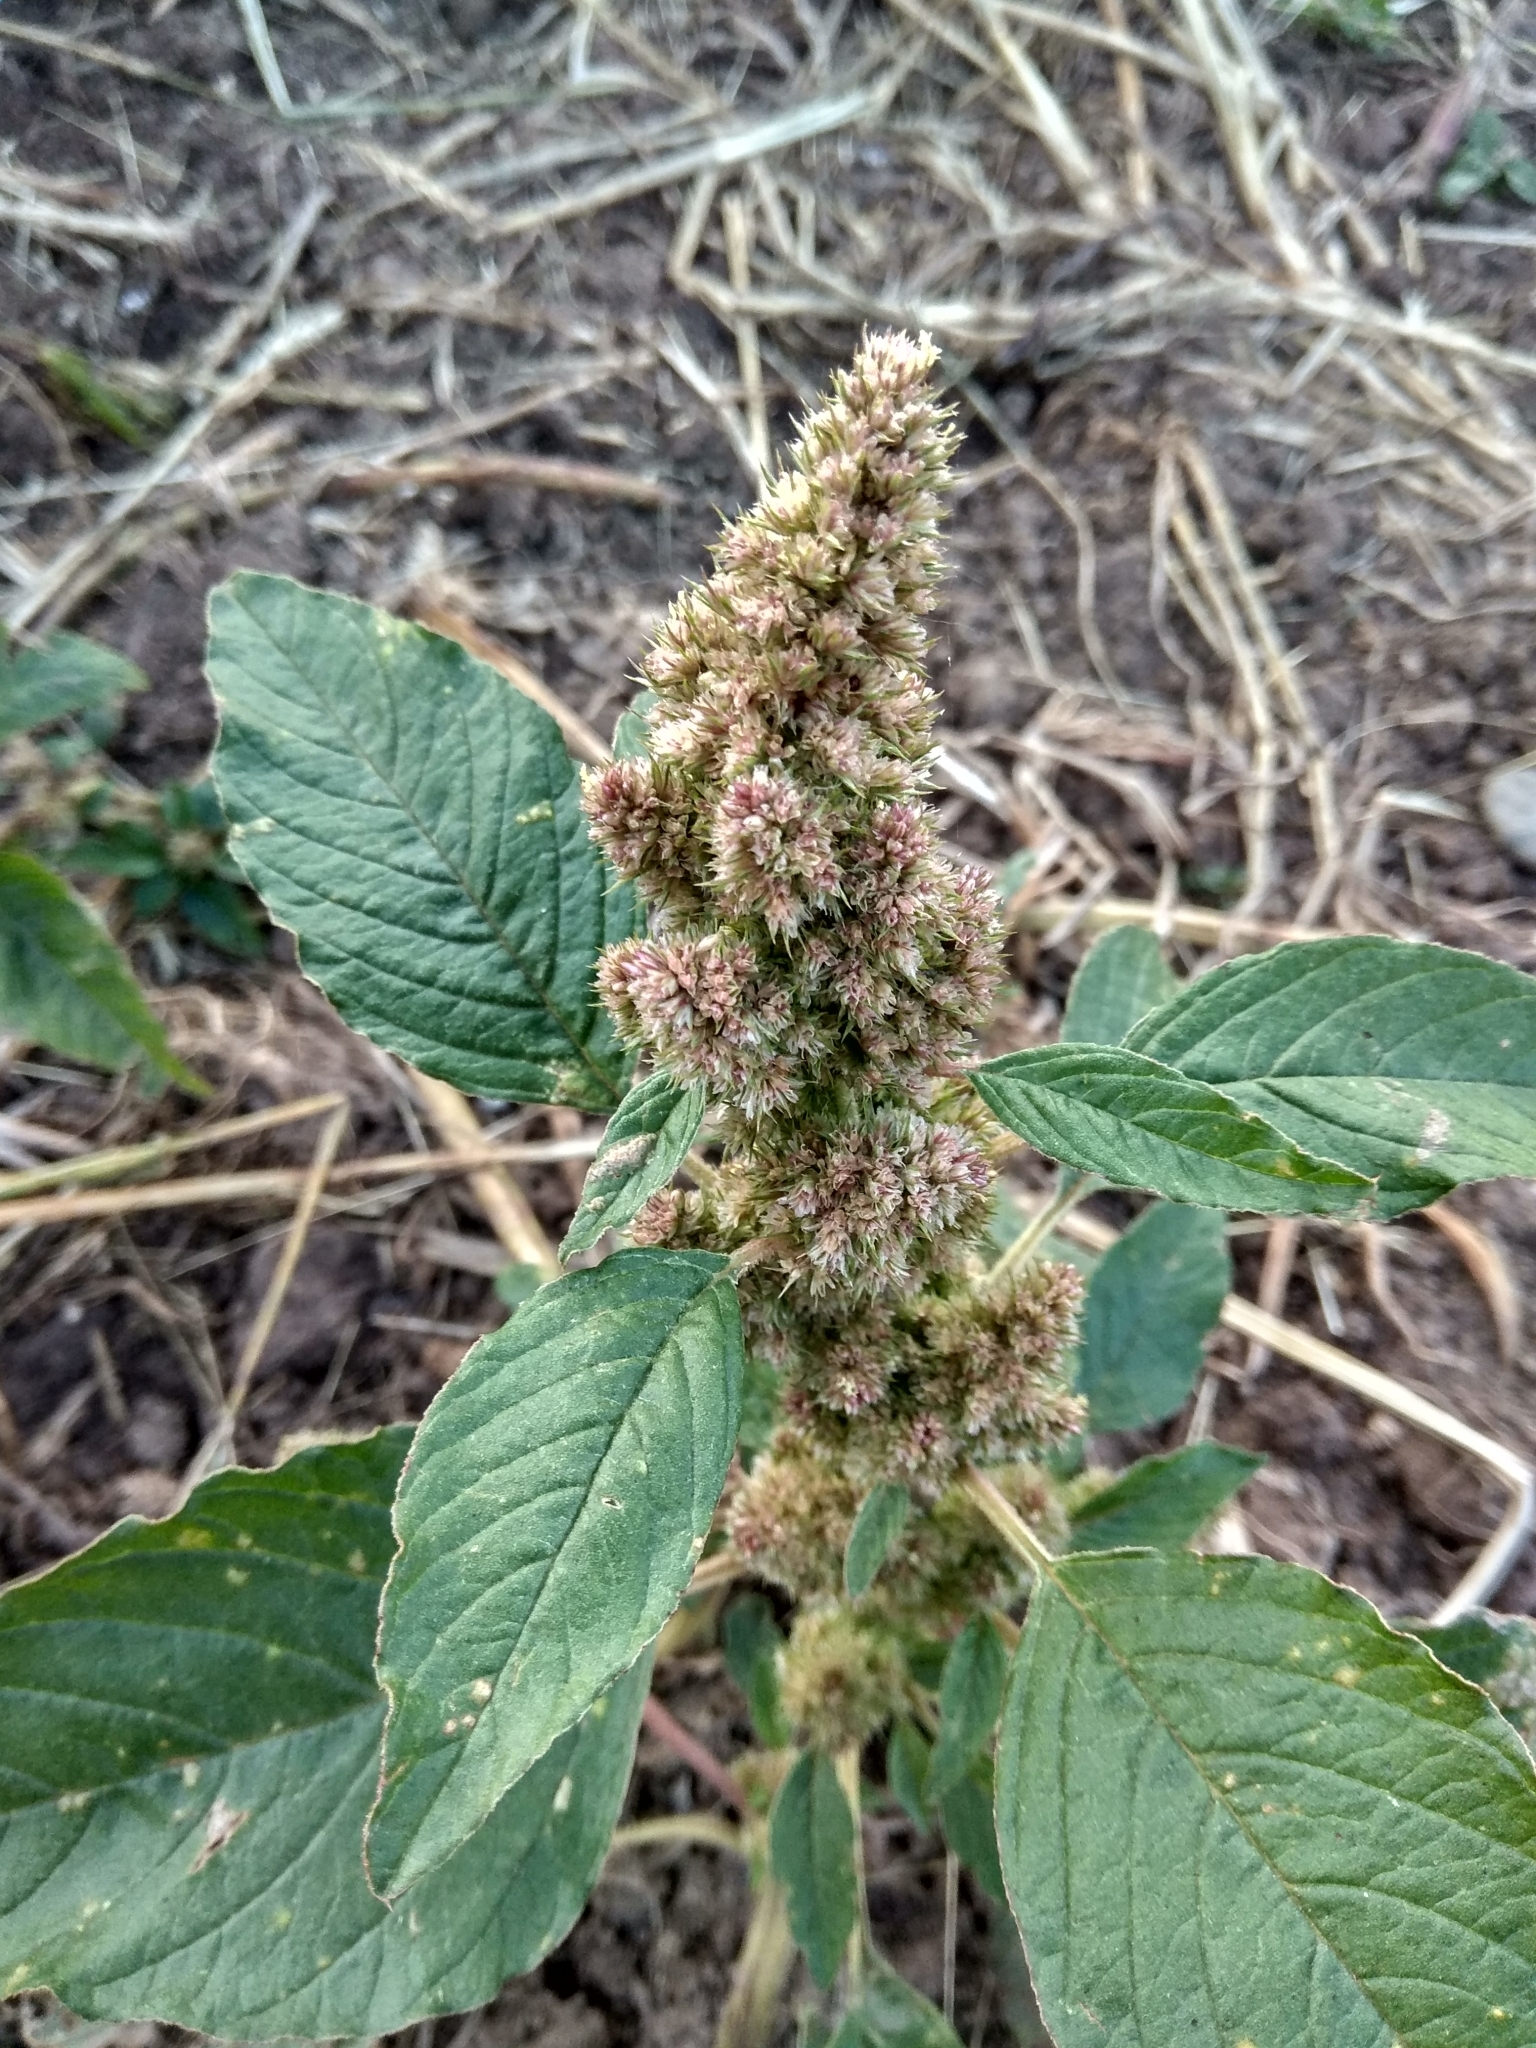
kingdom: Plantae
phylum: Tracheophyta
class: Magnoliopsida
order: Caryophyllales
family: Amaranthaceae
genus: Amaranthus
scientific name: Amaranthus retroflexus
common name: Redroot amaranth
